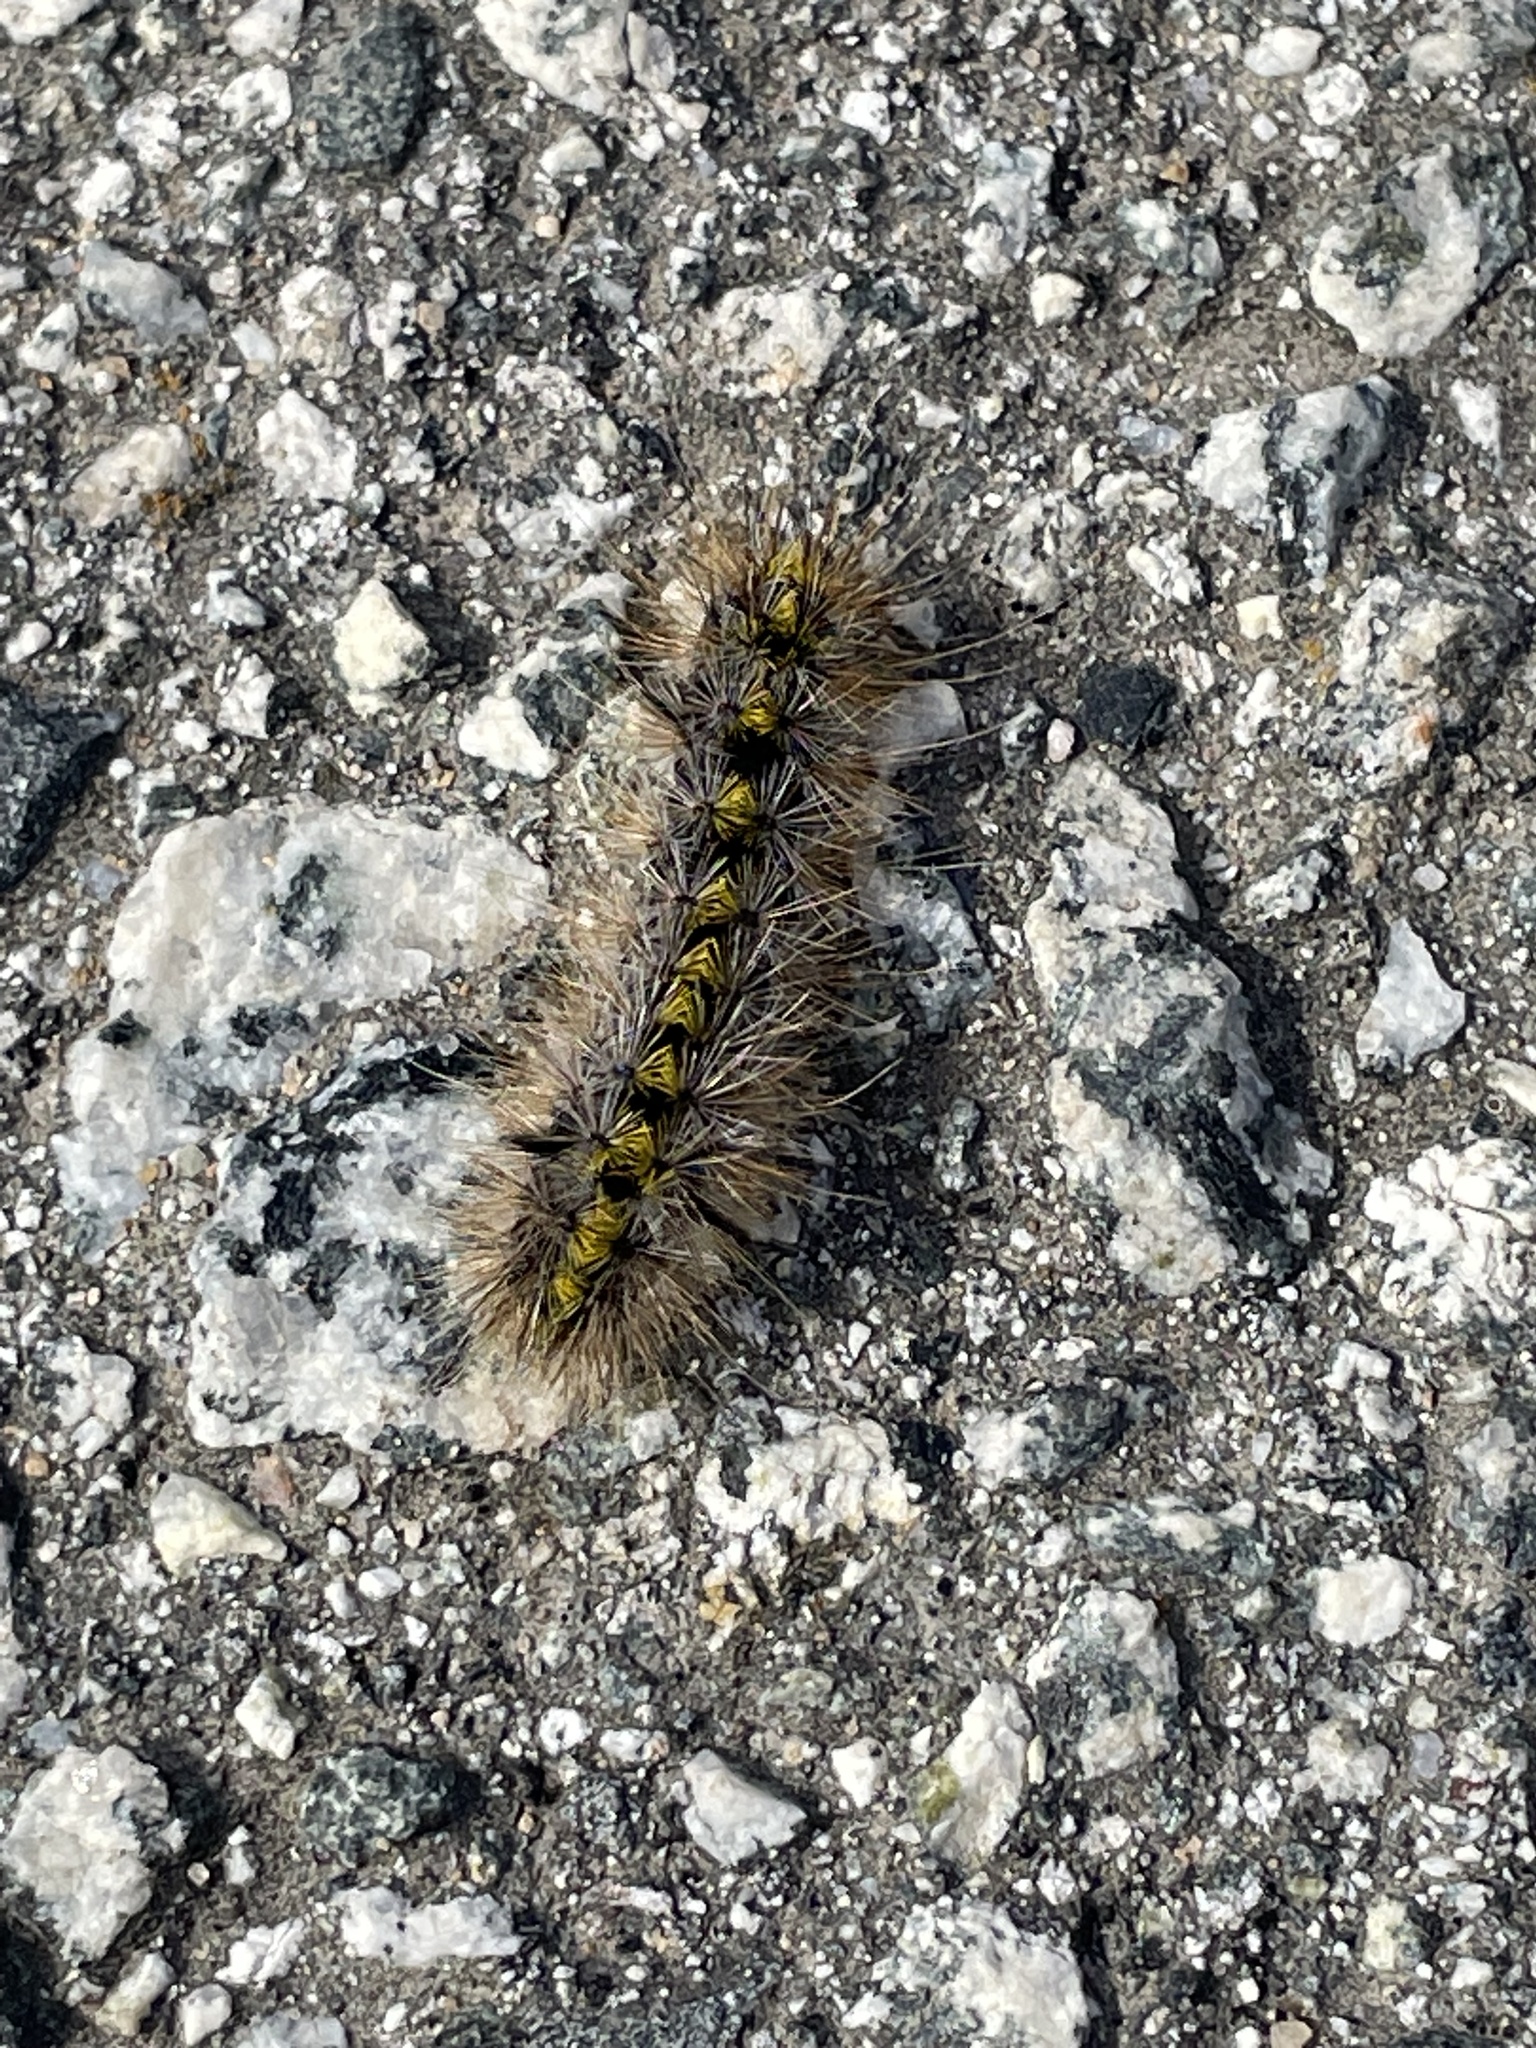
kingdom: Animalia
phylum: Arthropoda
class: Insecta
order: Lepidoptera
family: Erebidae
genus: Lophocampa
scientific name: Lophocampa argentata
